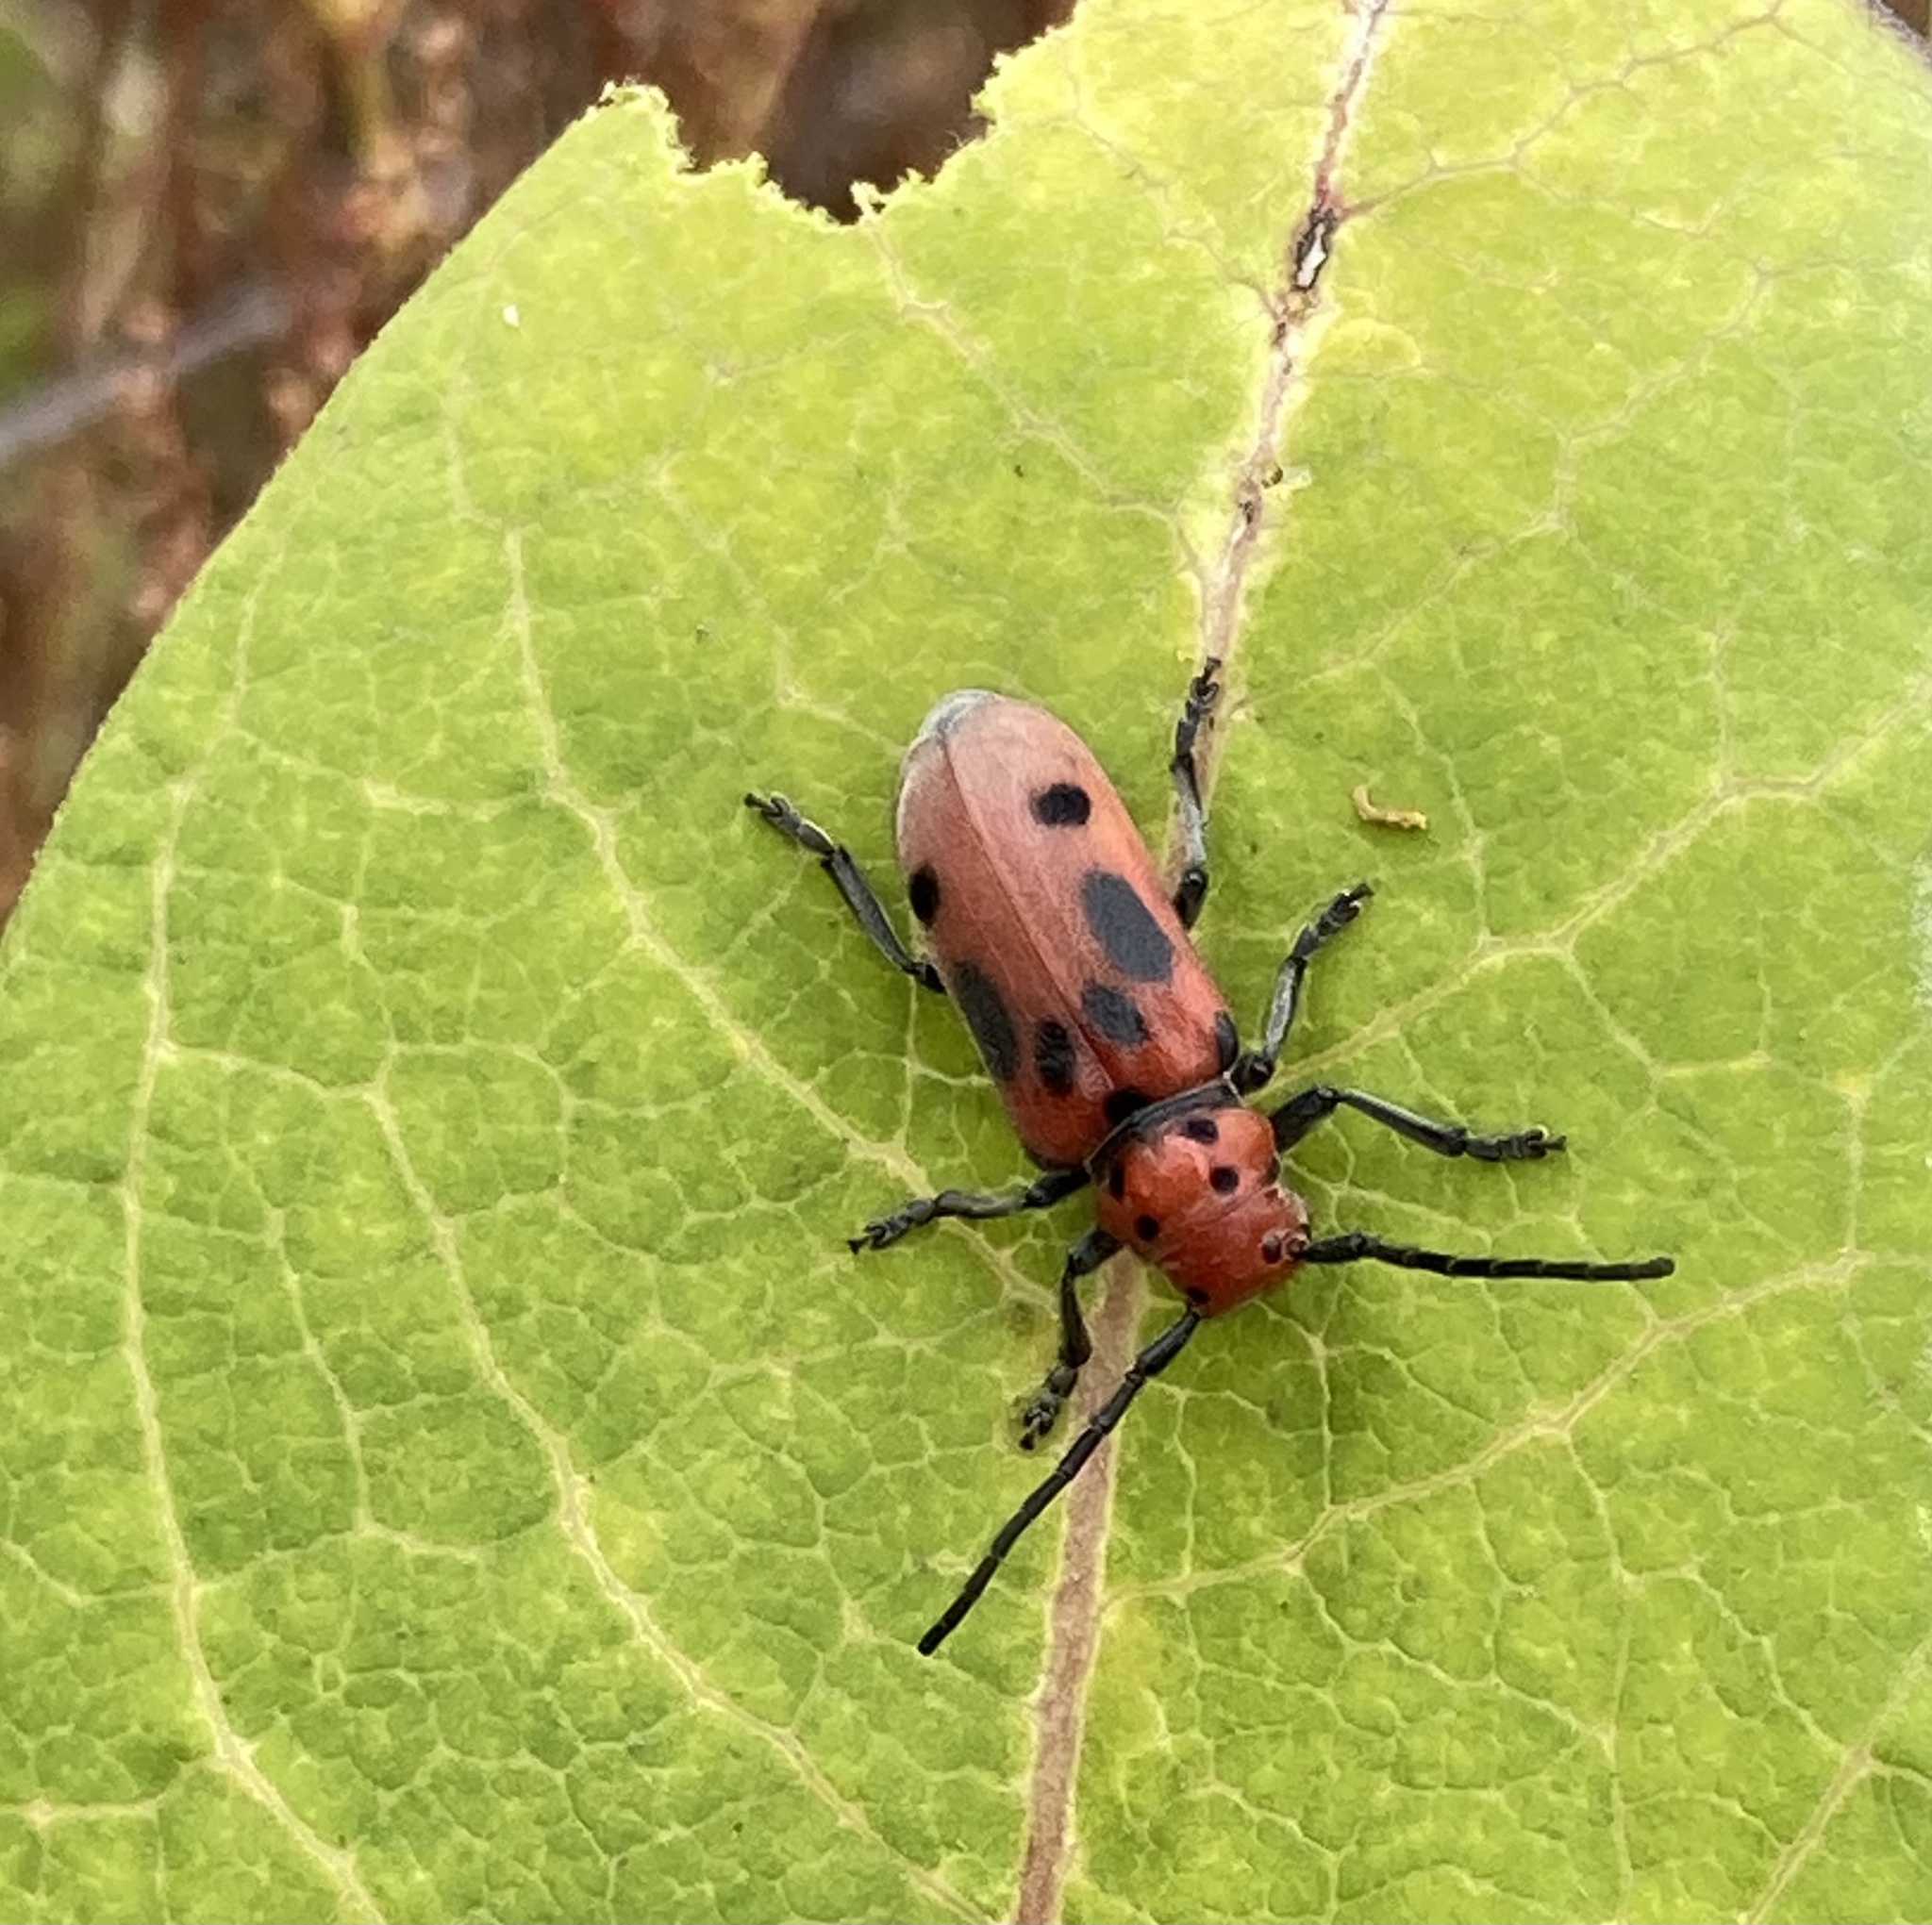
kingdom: Animalia
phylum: Arthropoda
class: Insecta
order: Coleoptera
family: Cerambycidae
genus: Tetraopes
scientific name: Tetraopes tetrophthalmus
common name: Red milkweed beetle
